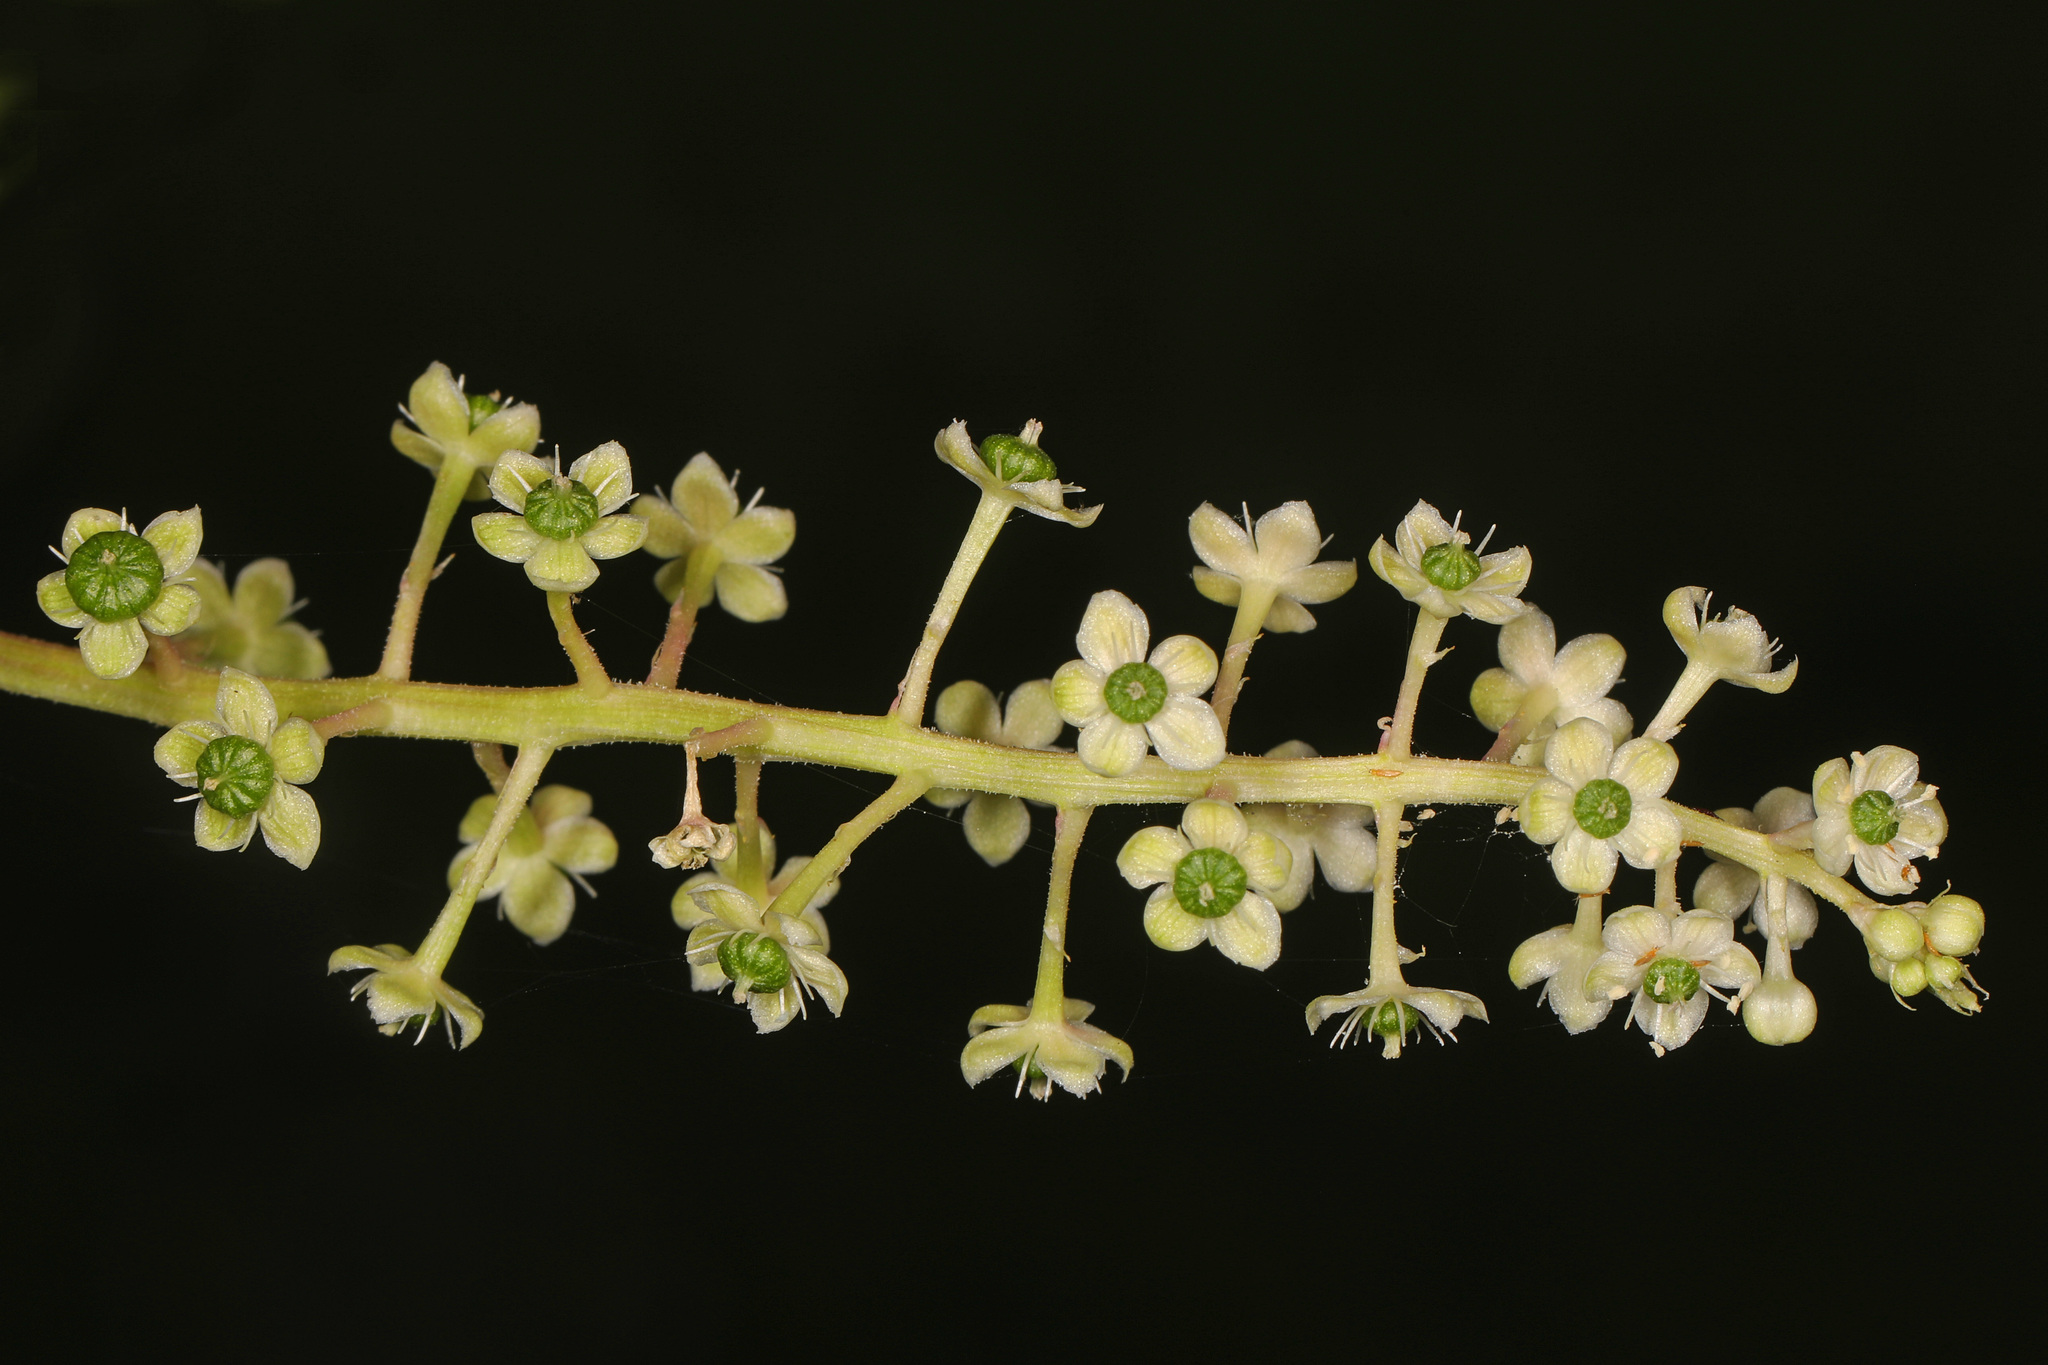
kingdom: Plantae
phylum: Tracheophyta
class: Magnoliopsida
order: Caryophyllales
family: Phytolaccaceae
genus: Phytolacca
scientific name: Phytolacca americana
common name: American pokeweed
